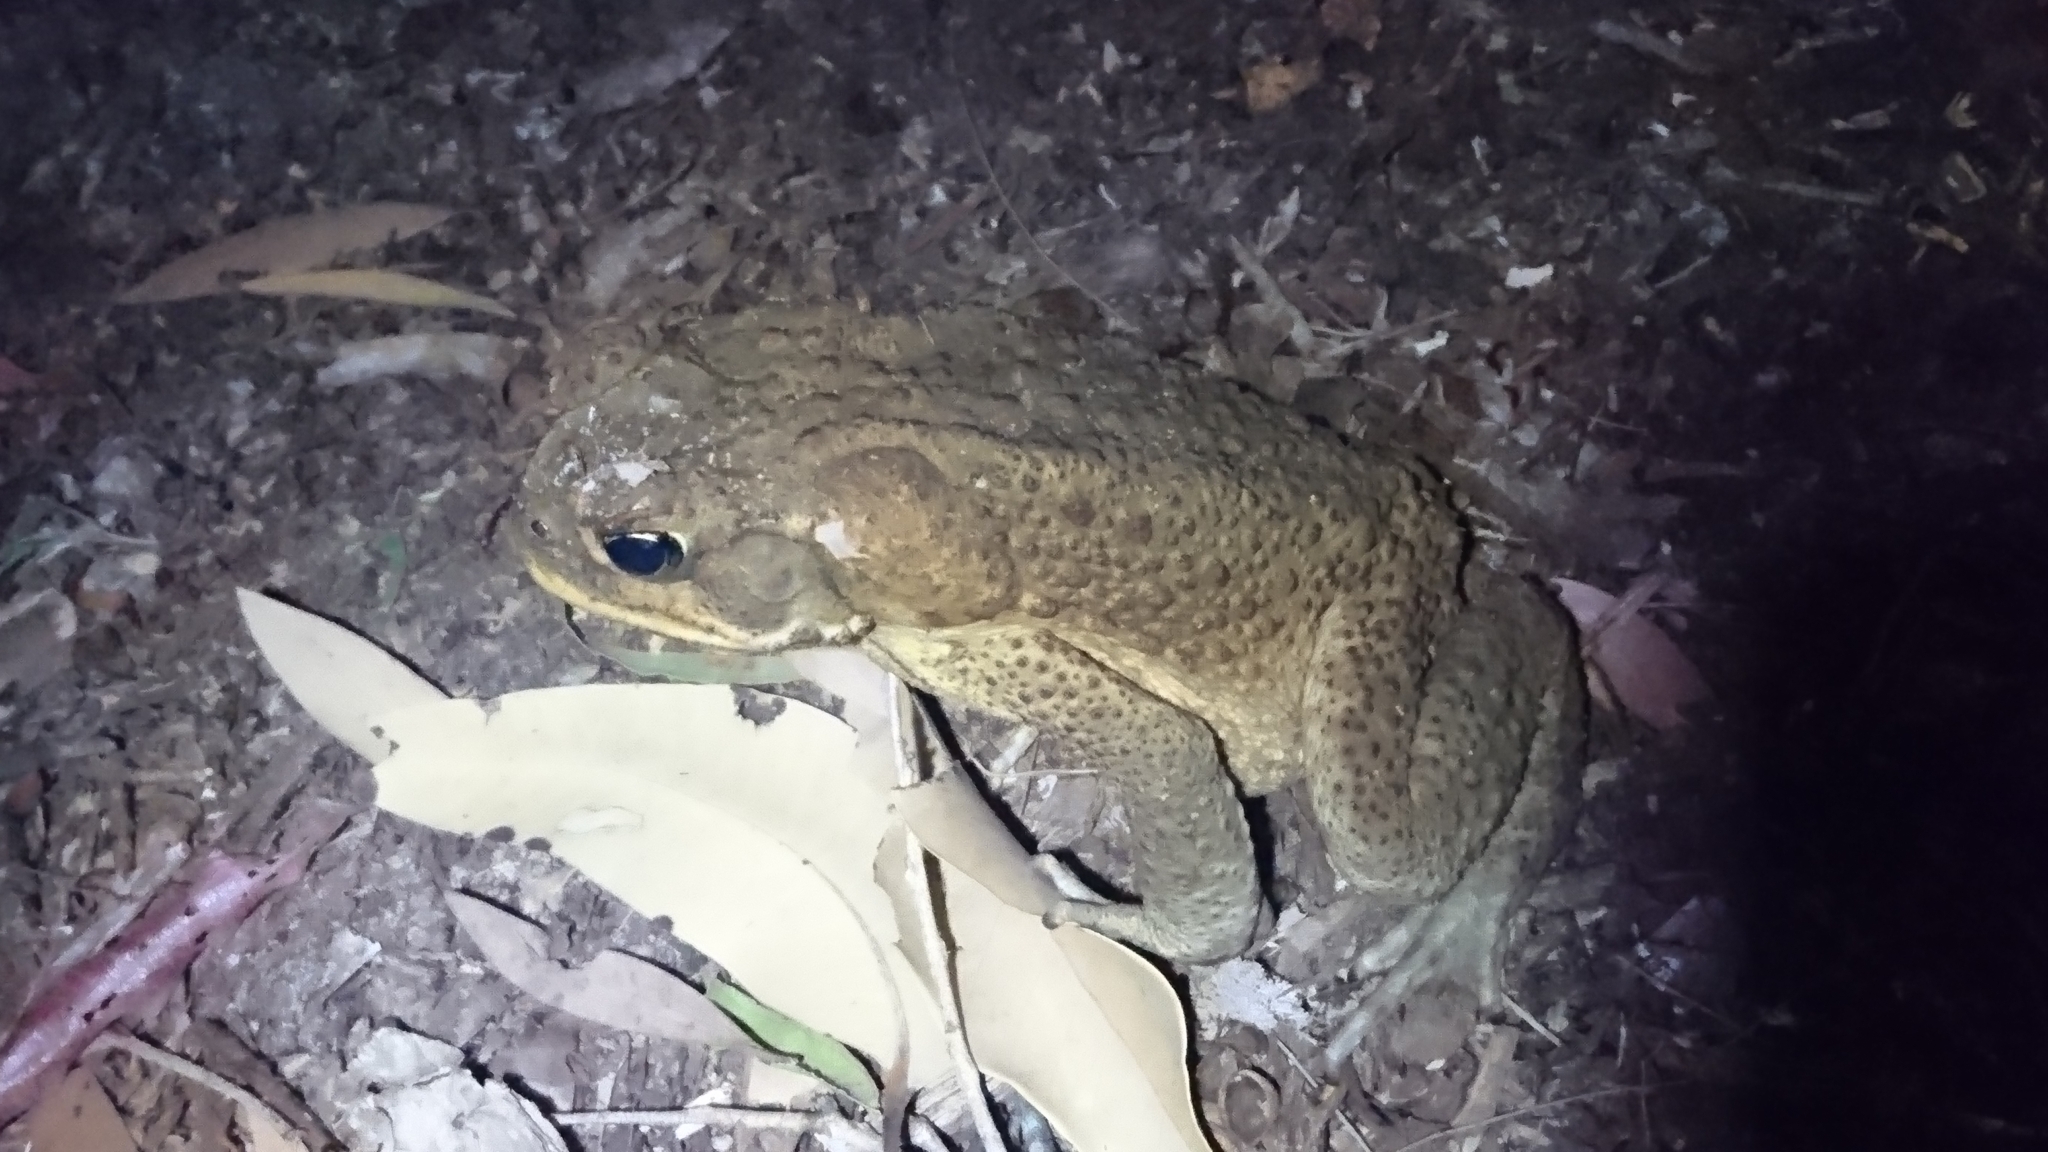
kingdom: Animalia
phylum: Chordata
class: Amphibia
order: Anura
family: Bufonidae
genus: Rhinella
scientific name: Rhinella marina
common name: Cane toad
